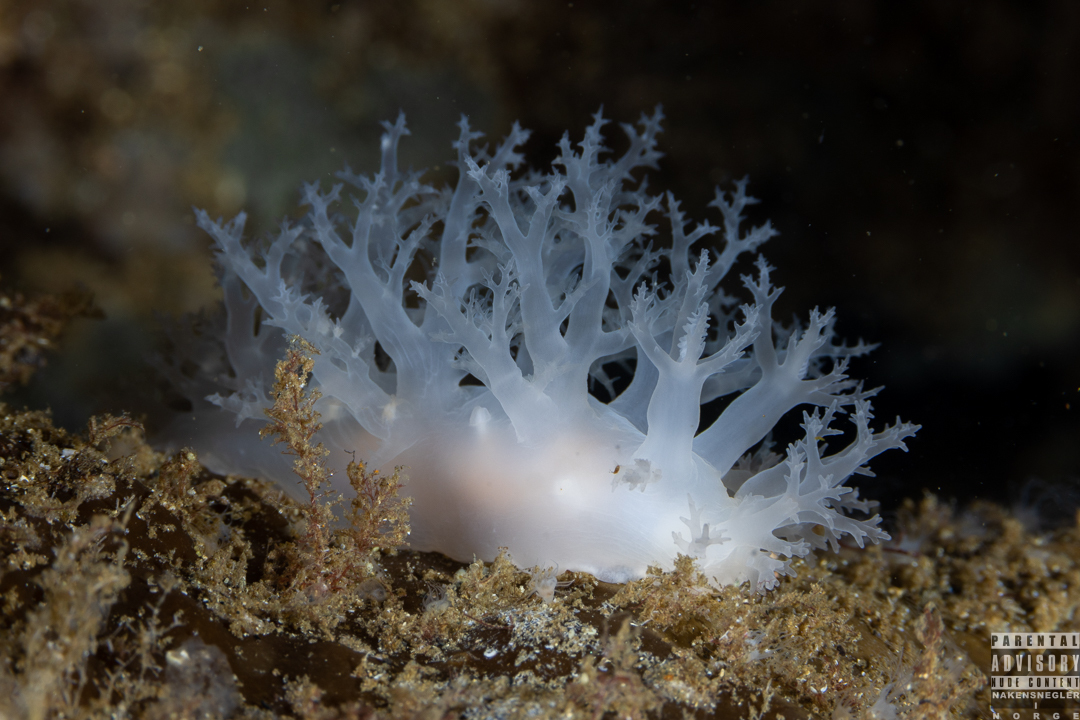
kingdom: Animalia
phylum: Mollusca
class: Gastropoda
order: Nudibranchia
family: Dendronotidae
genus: Dendronotus
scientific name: Dendronotus lacteus
